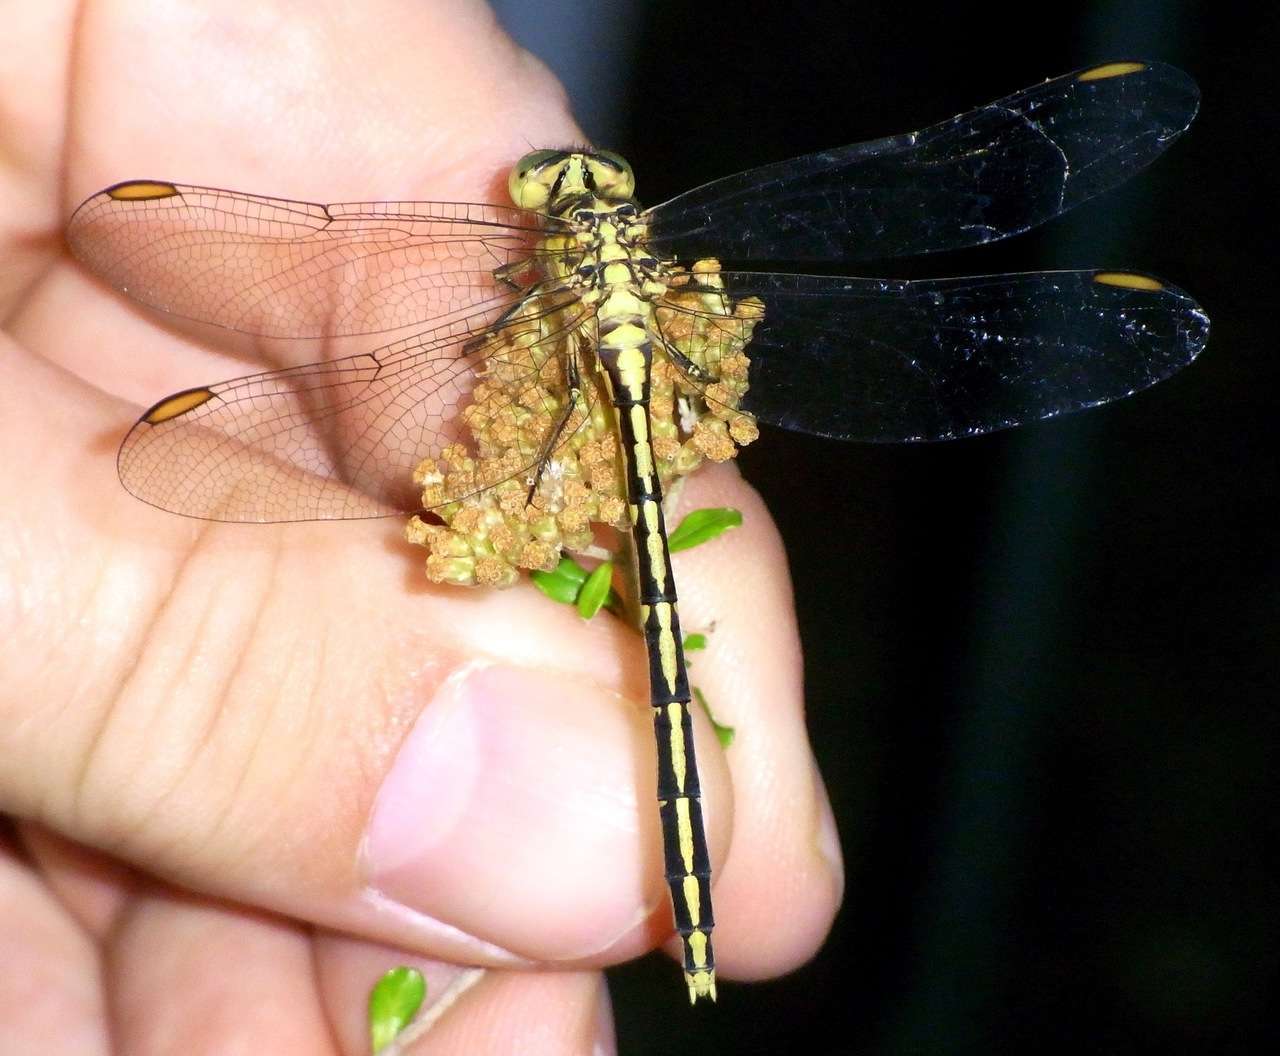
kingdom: Animalia
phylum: Arthropoda
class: Insecta
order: Odonata
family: Gomphidae
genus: Austrogomphus
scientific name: Austrogomphus guerini
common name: Yellow-striped hunter
